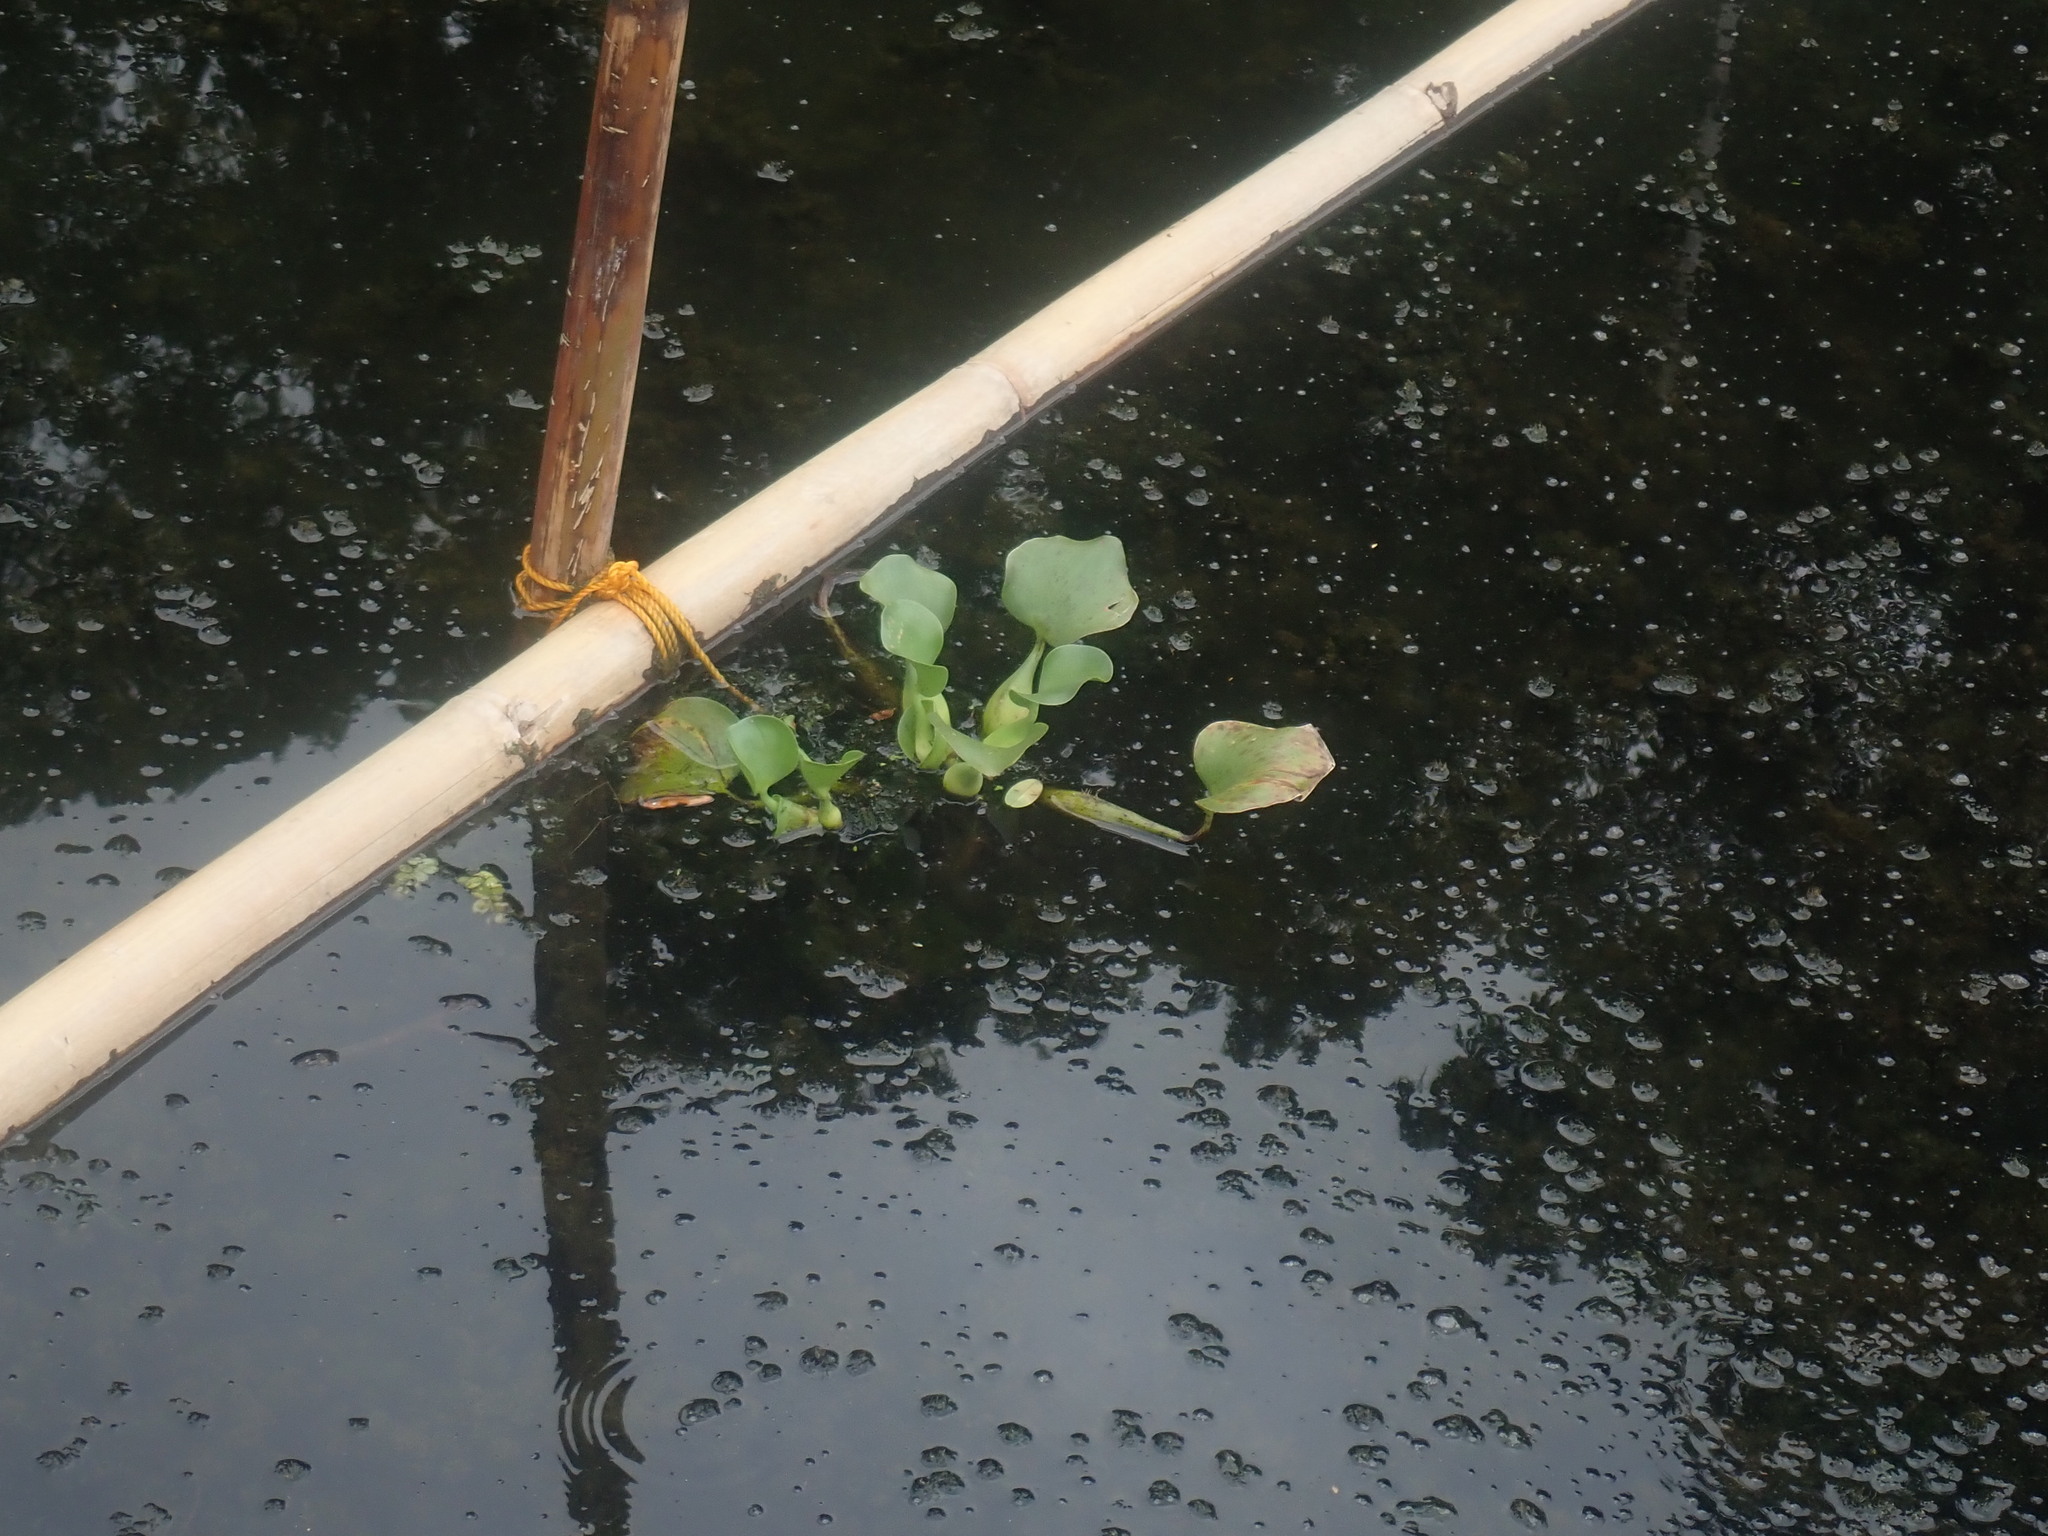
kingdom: Plantae
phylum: Tracheophyta
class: Liliopsida
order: Commelinales
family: Pontederiaceae
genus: Pontederia
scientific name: Pontederia crassipes
